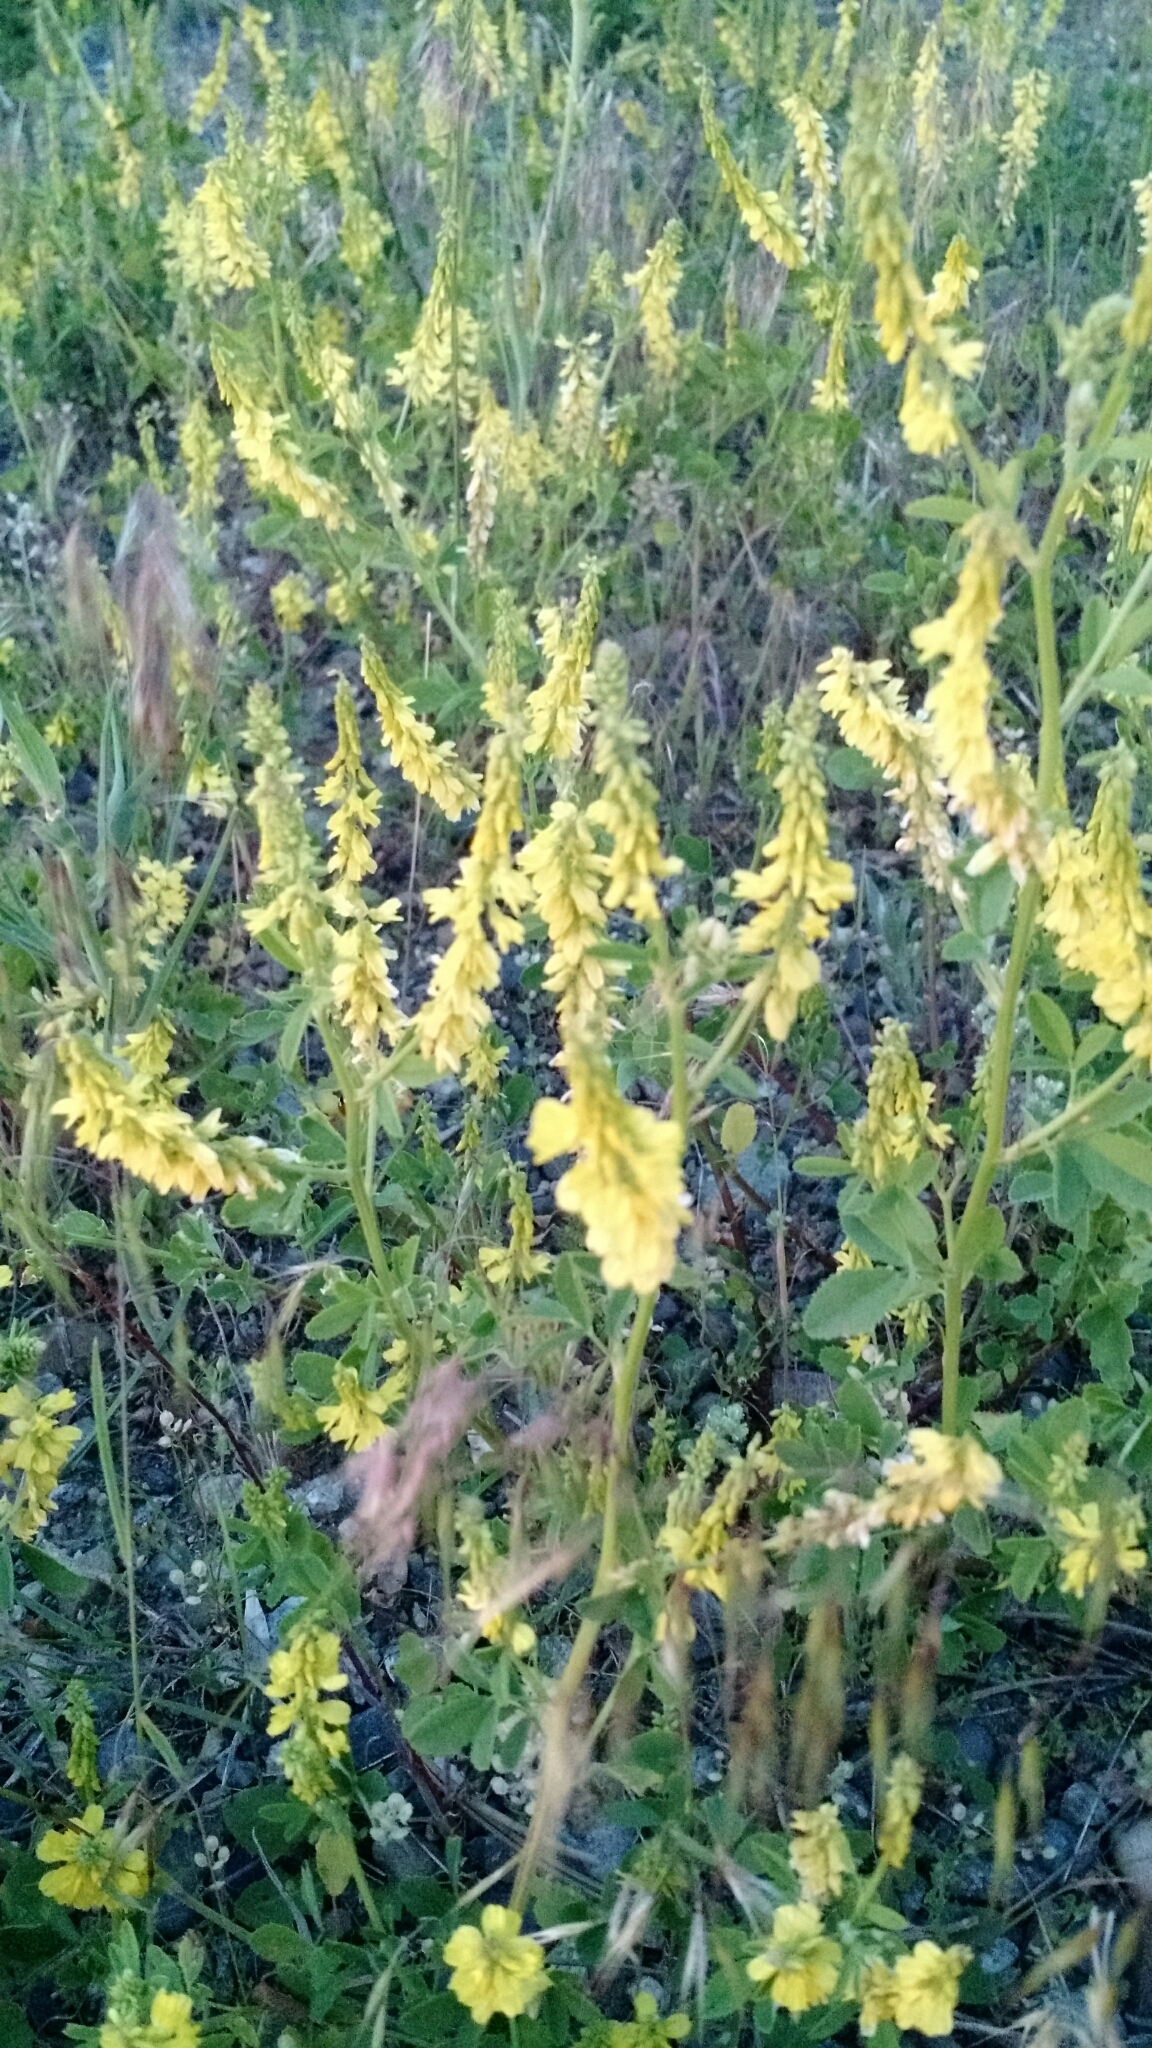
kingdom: Plantae
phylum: Tracheophyta
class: Magnoliopsida
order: Fabales
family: Fabaceae
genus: Melilotus
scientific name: Melilotus officinalis
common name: Sweetclover
